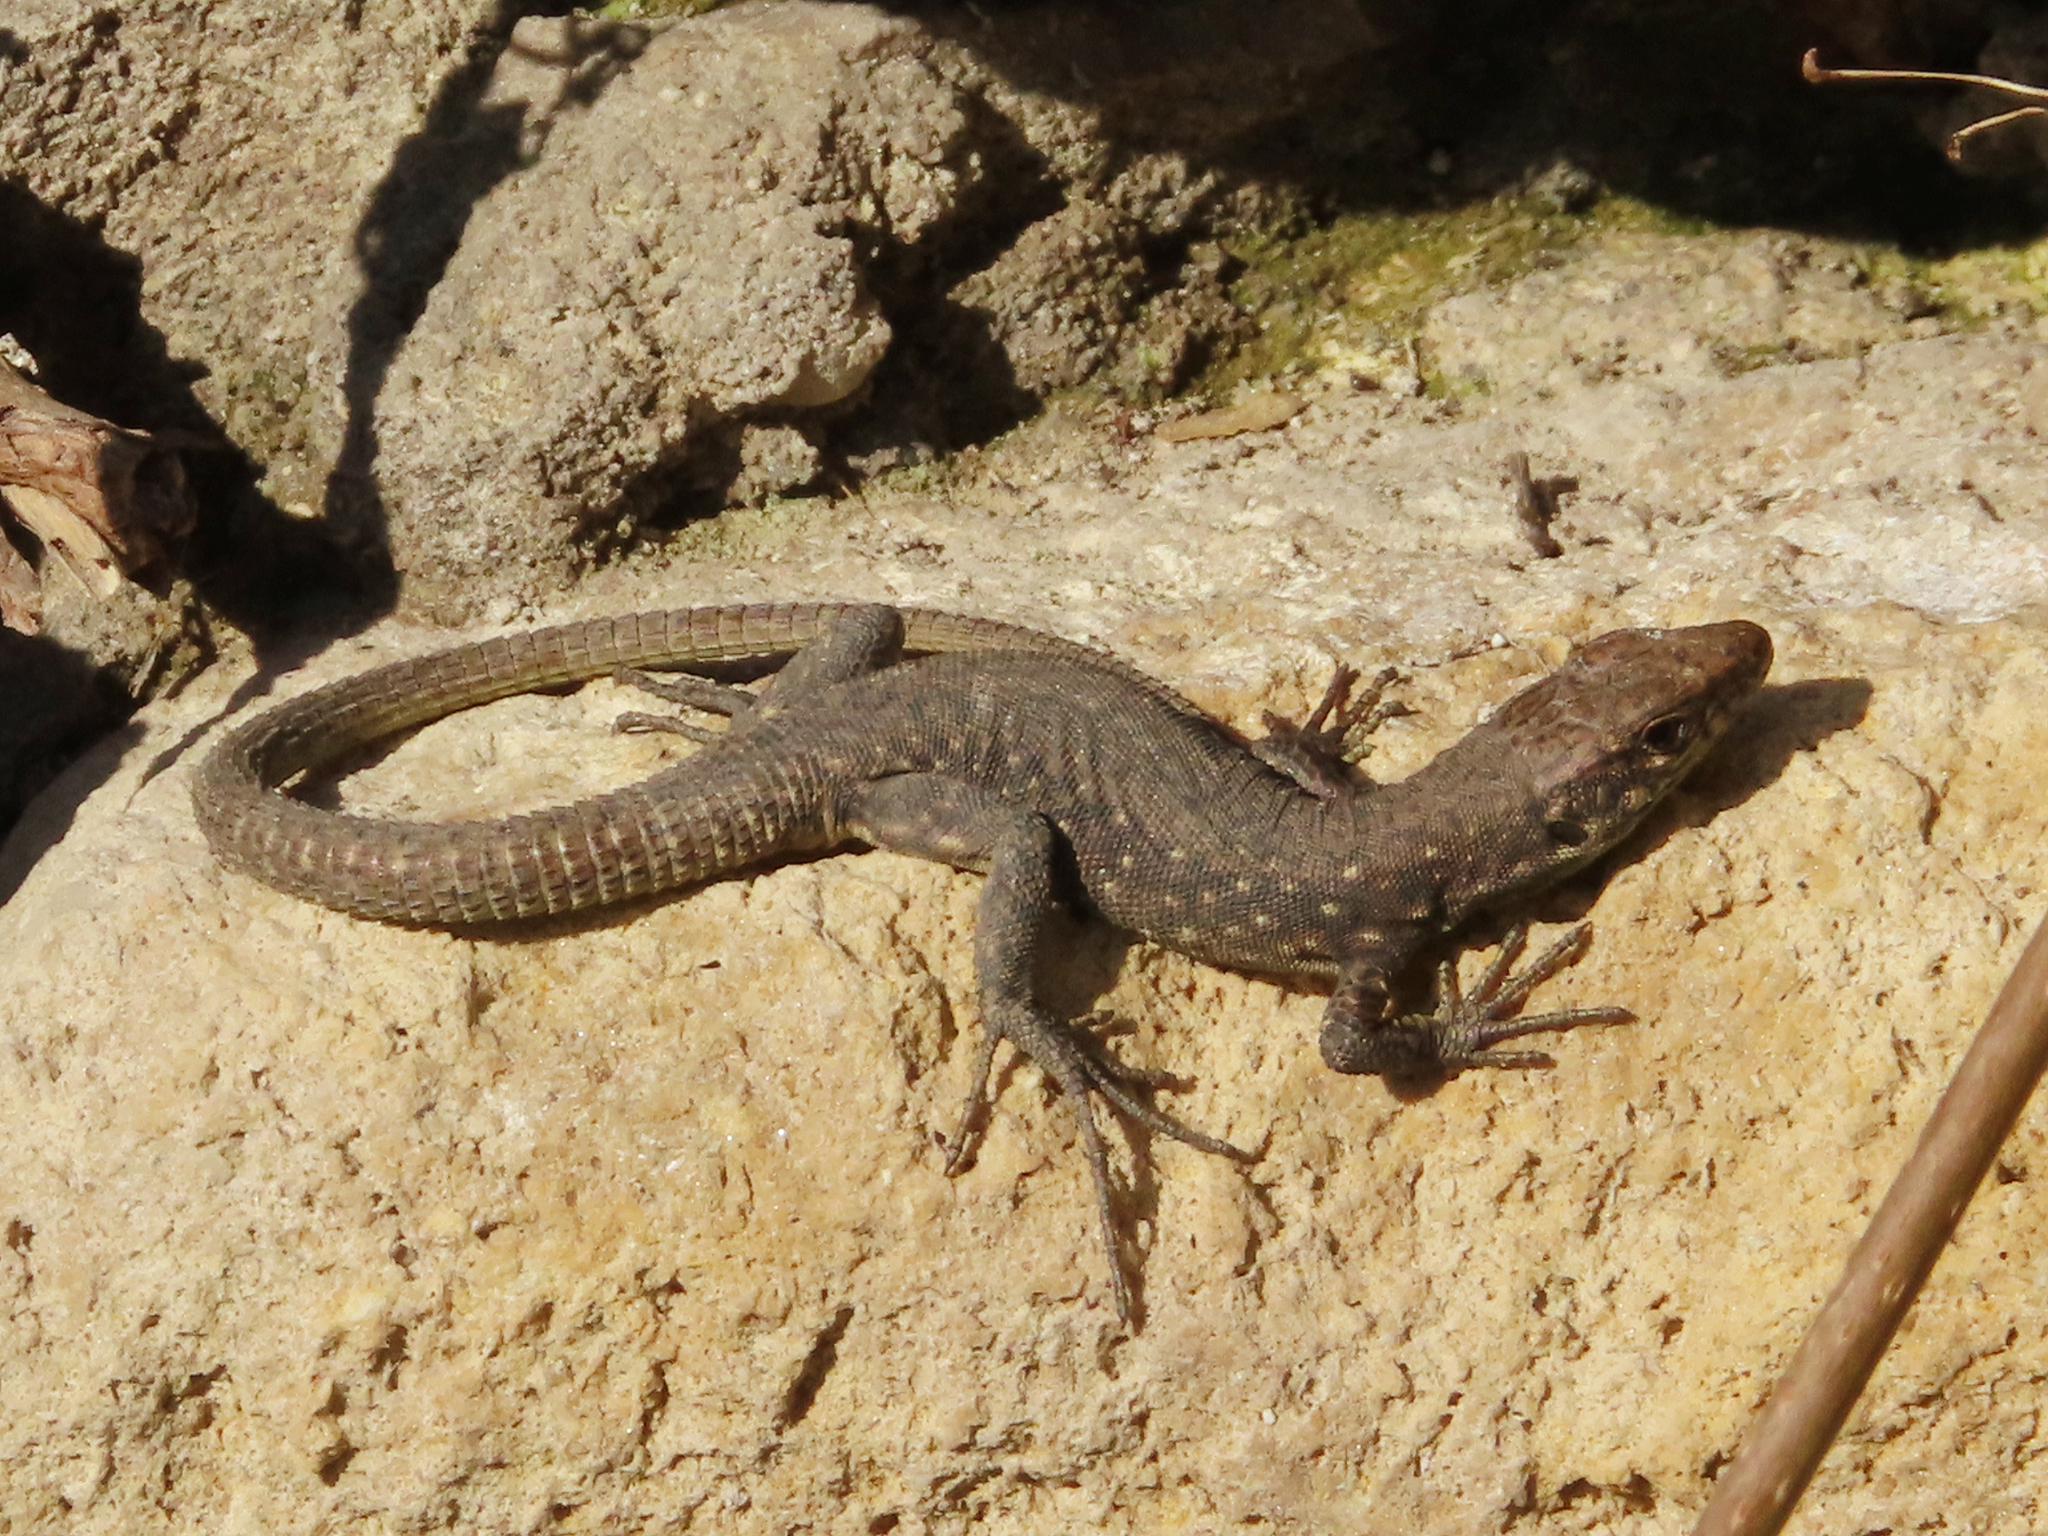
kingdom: Animalia
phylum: Chordata
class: Squamata
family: Lacertidae
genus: Darevskia
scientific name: Darevskia rudis
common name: Spiny-tailed lizard
